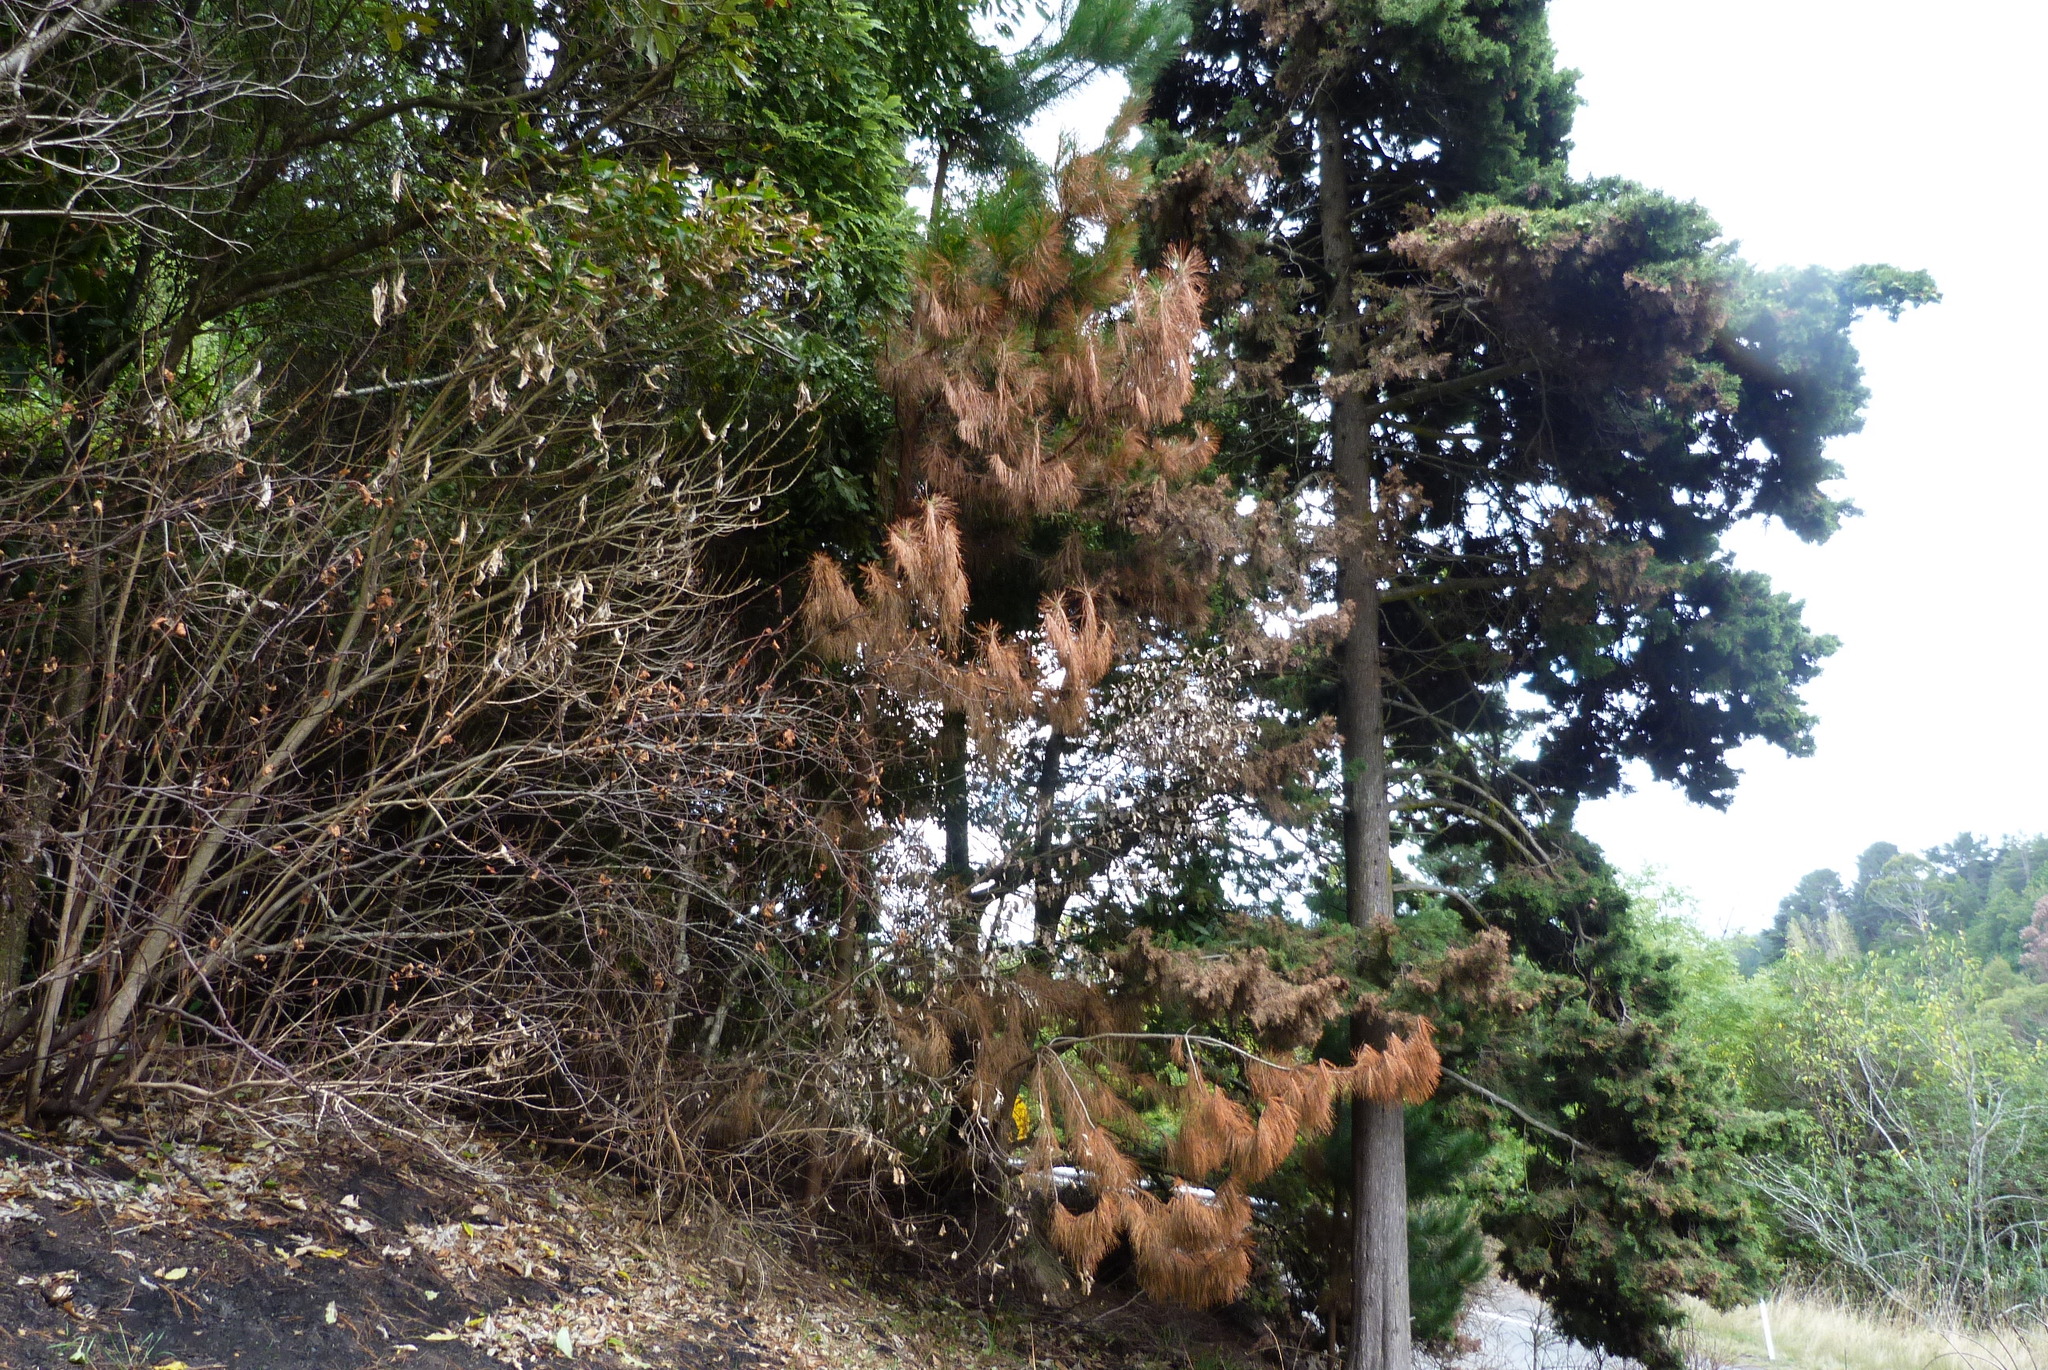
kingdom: Plantae
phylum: Tracheophyta
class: Pinopsida
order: Pinales
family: Pinaceae
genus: Pinus
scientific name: Pinus radiata
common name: Monterey pine
